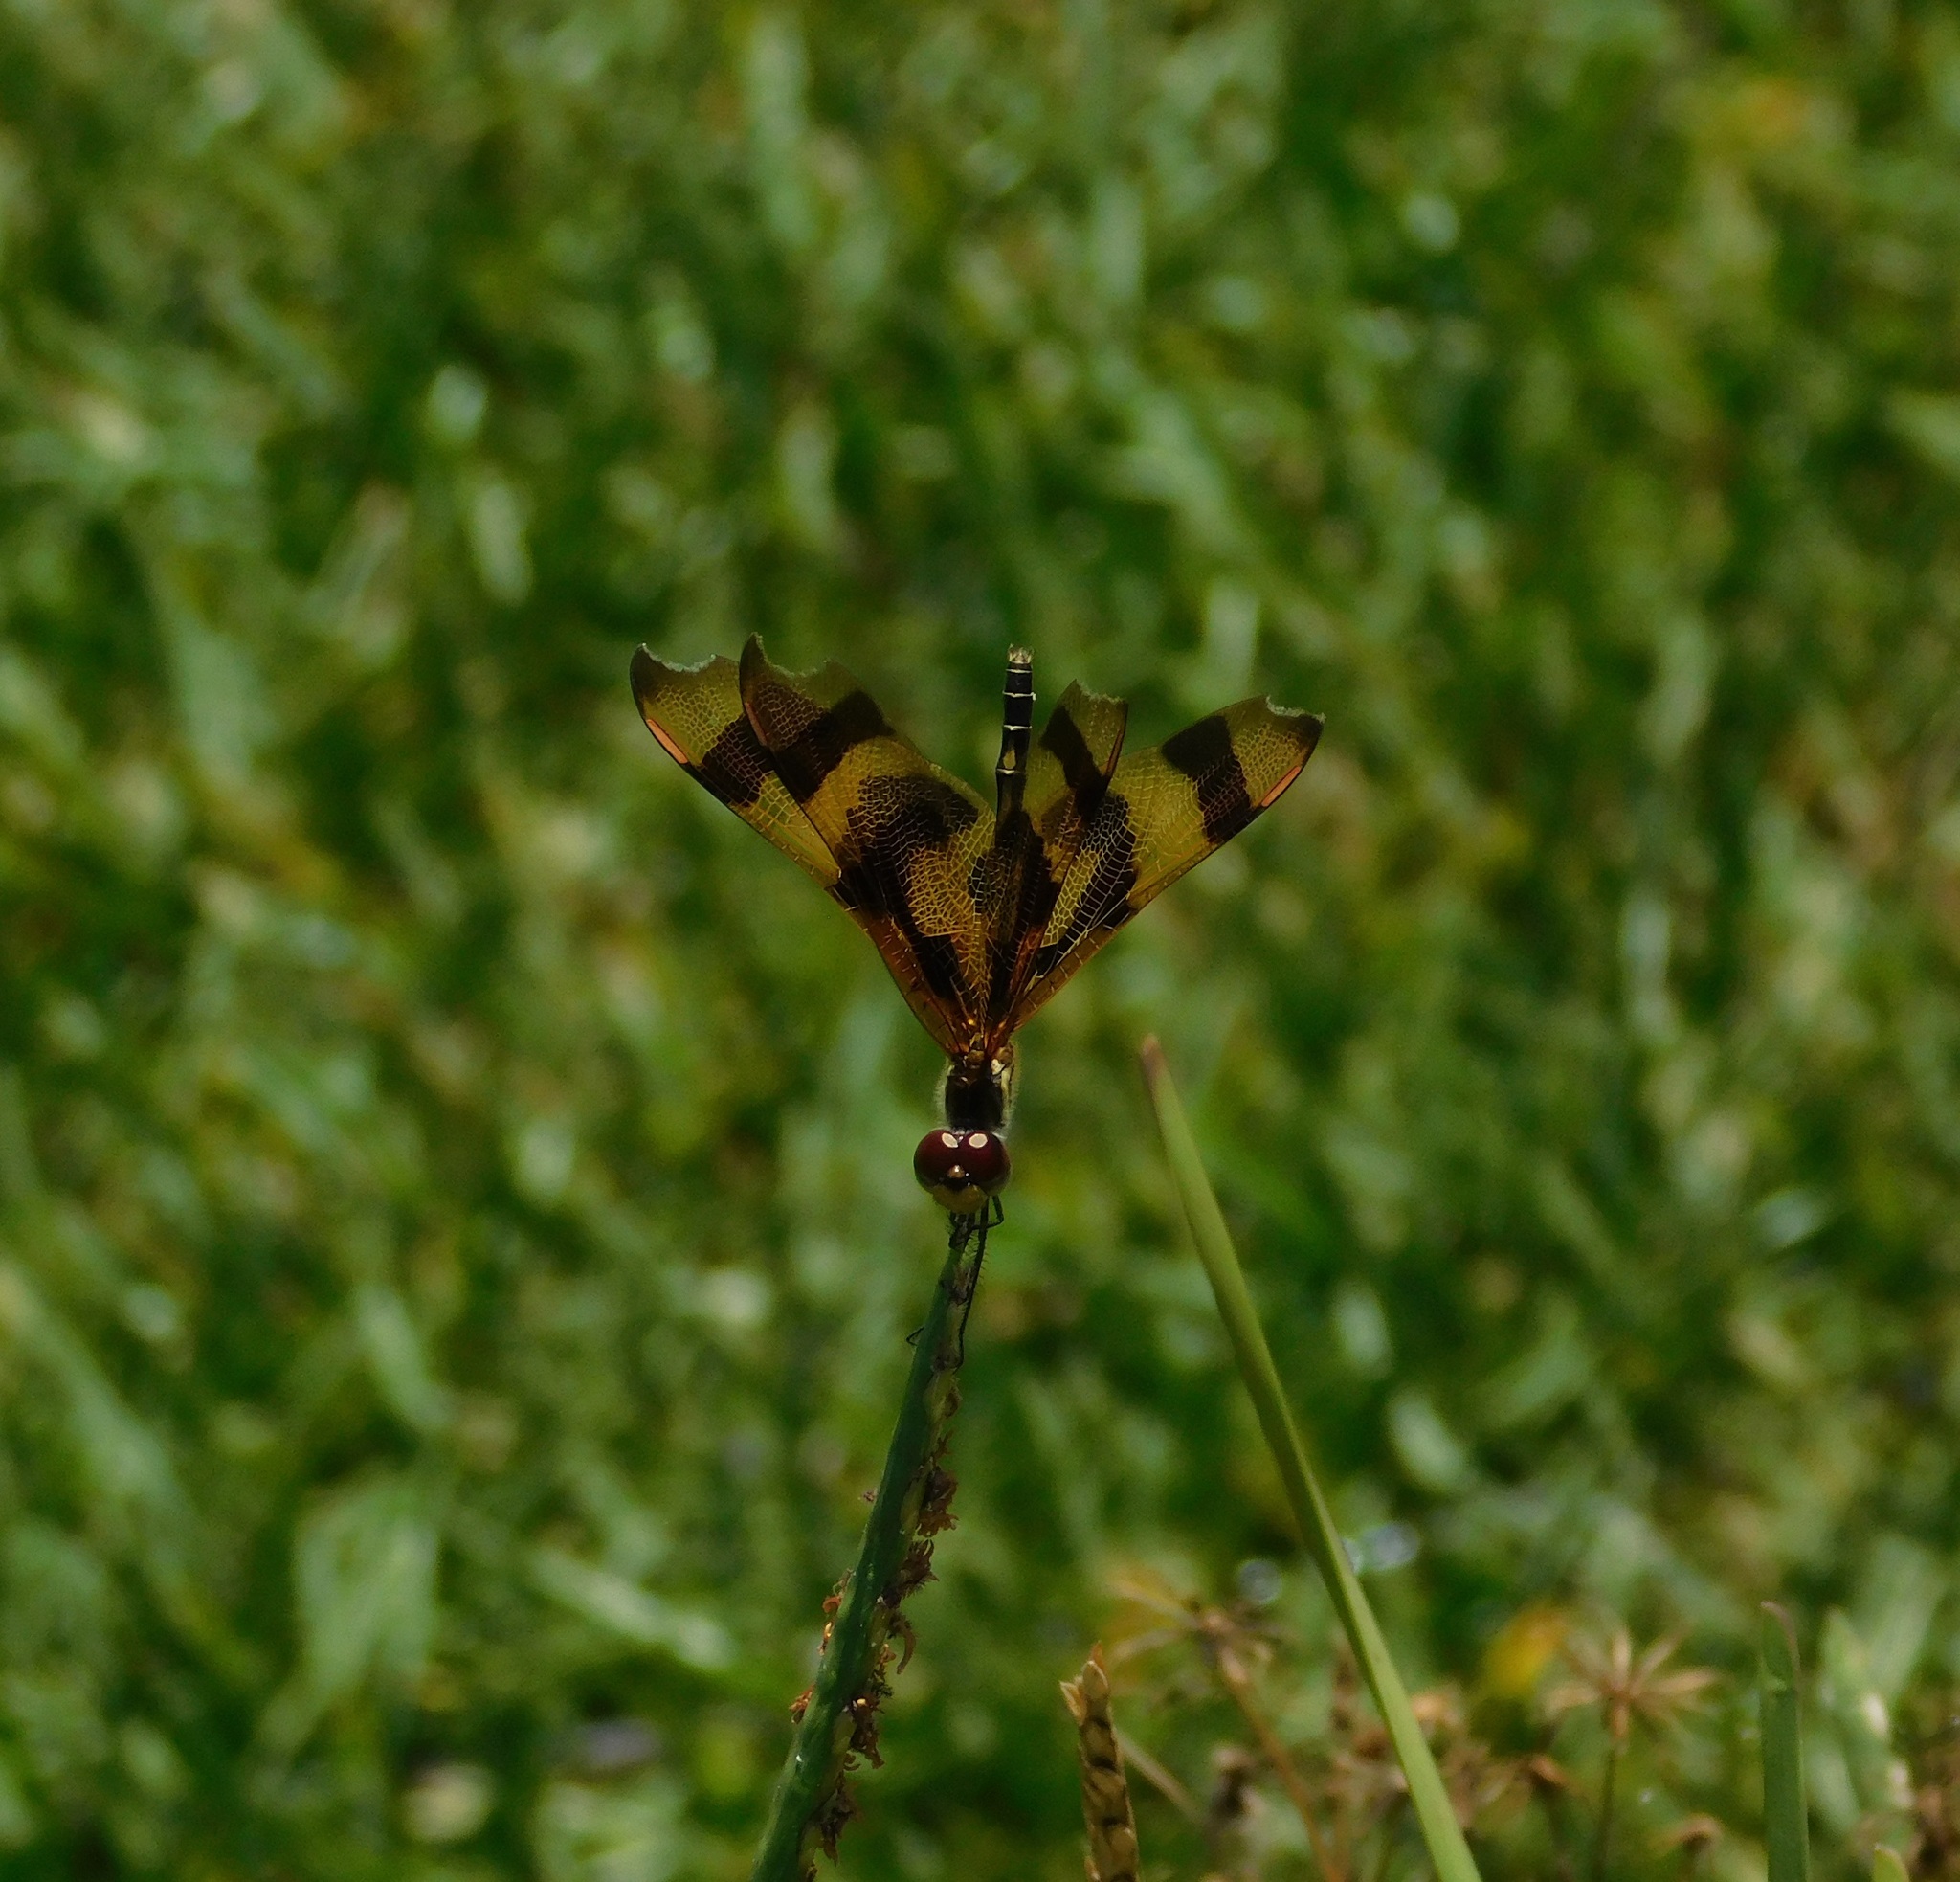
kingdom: Animalia
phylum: Arthropoda
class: Insecta
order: Odonata
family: Libellulidae
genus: Celithemis
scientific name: Celithemis eponina
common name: Halloween pennant
